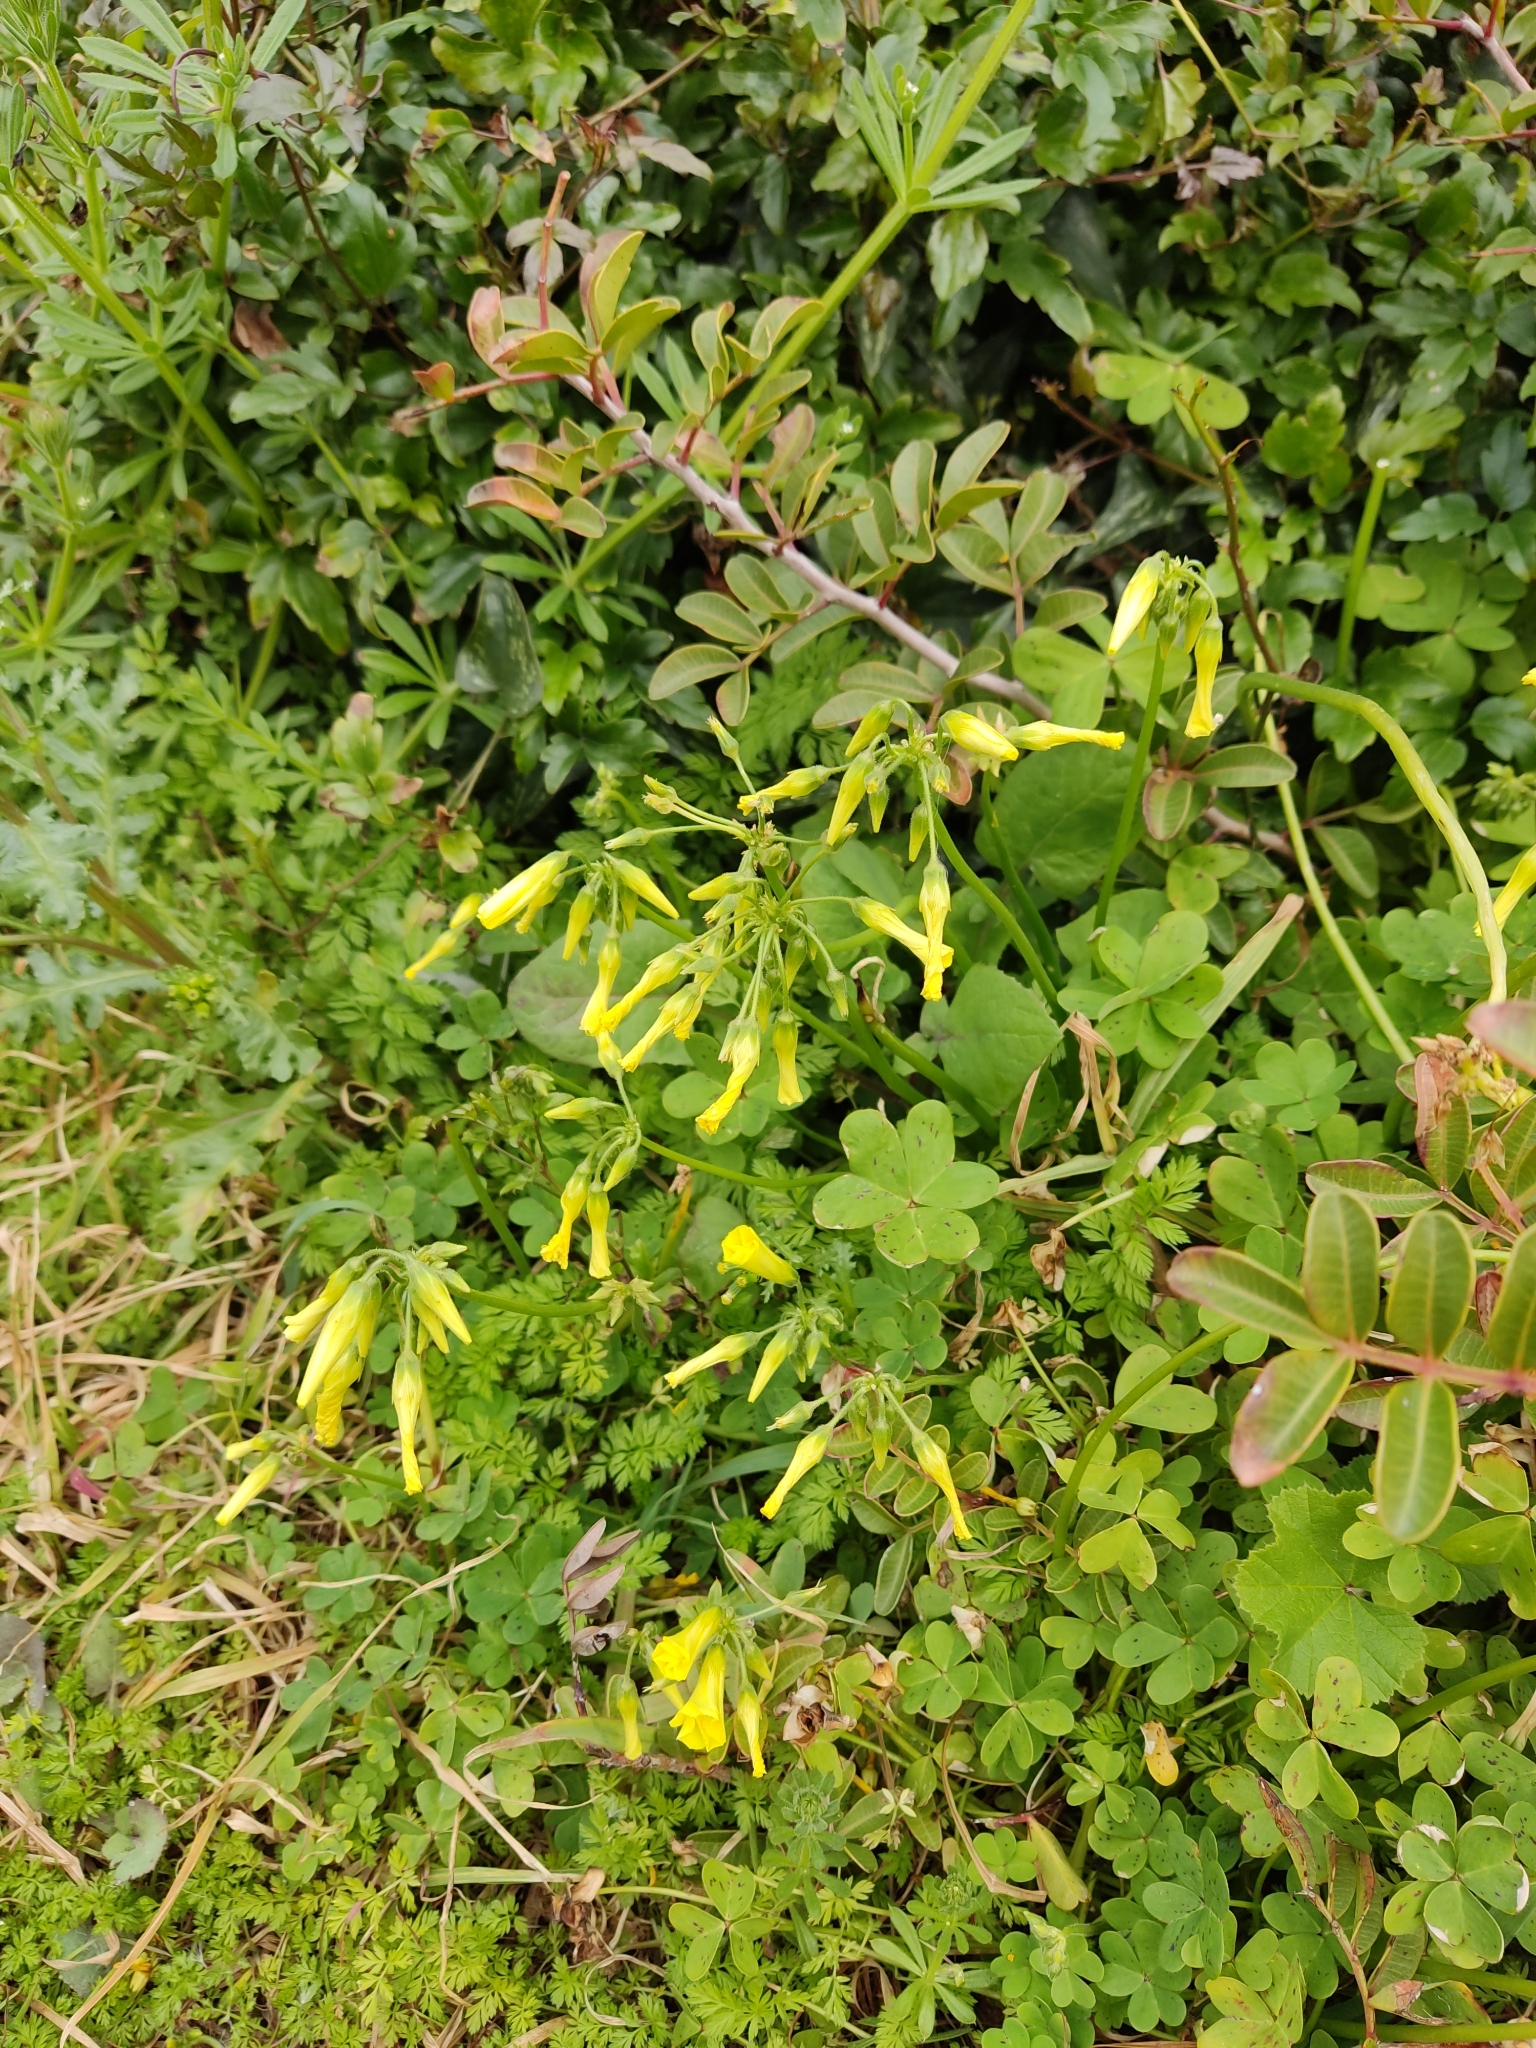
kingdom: Plantae
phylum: Tracheophyta
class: Magnoliopsida
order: Oxalidales
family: Oxalidaceae
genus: Oxalis
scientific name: Oxalis pes-caprae
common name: Bermuda-buttercup
